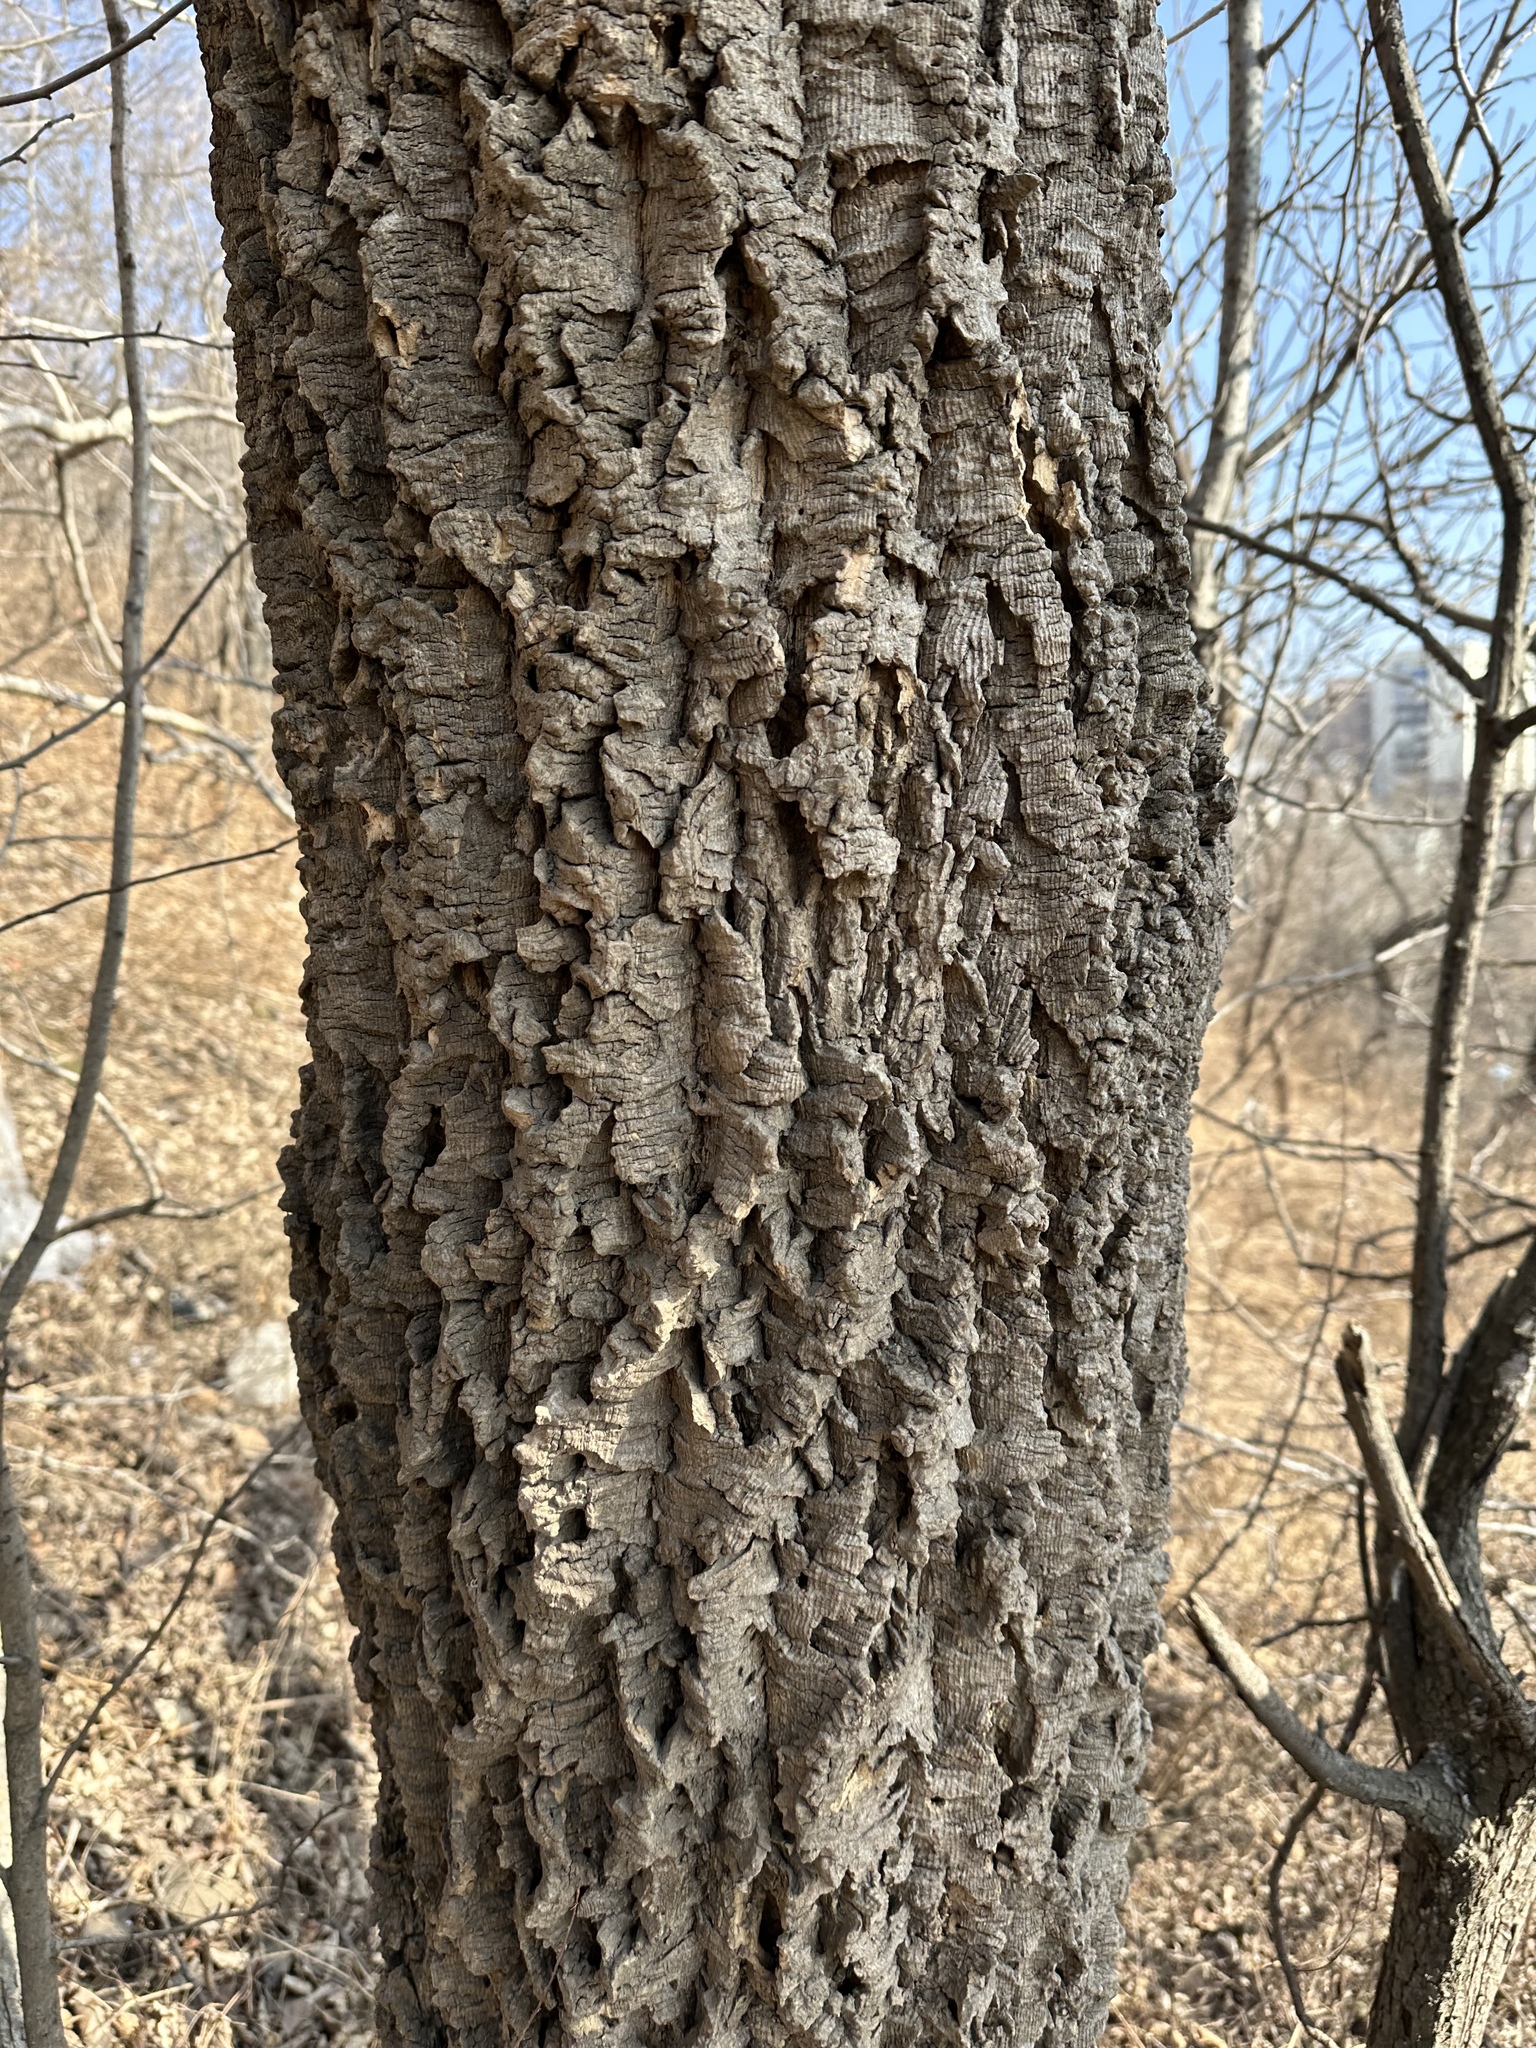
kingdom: Plantae
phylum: Tracheophyta
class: Magnoliopsida
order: Sapindales
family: Rutaceae
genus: Phellodendron
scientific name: Phellodendron amurense
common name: Amur corktree
